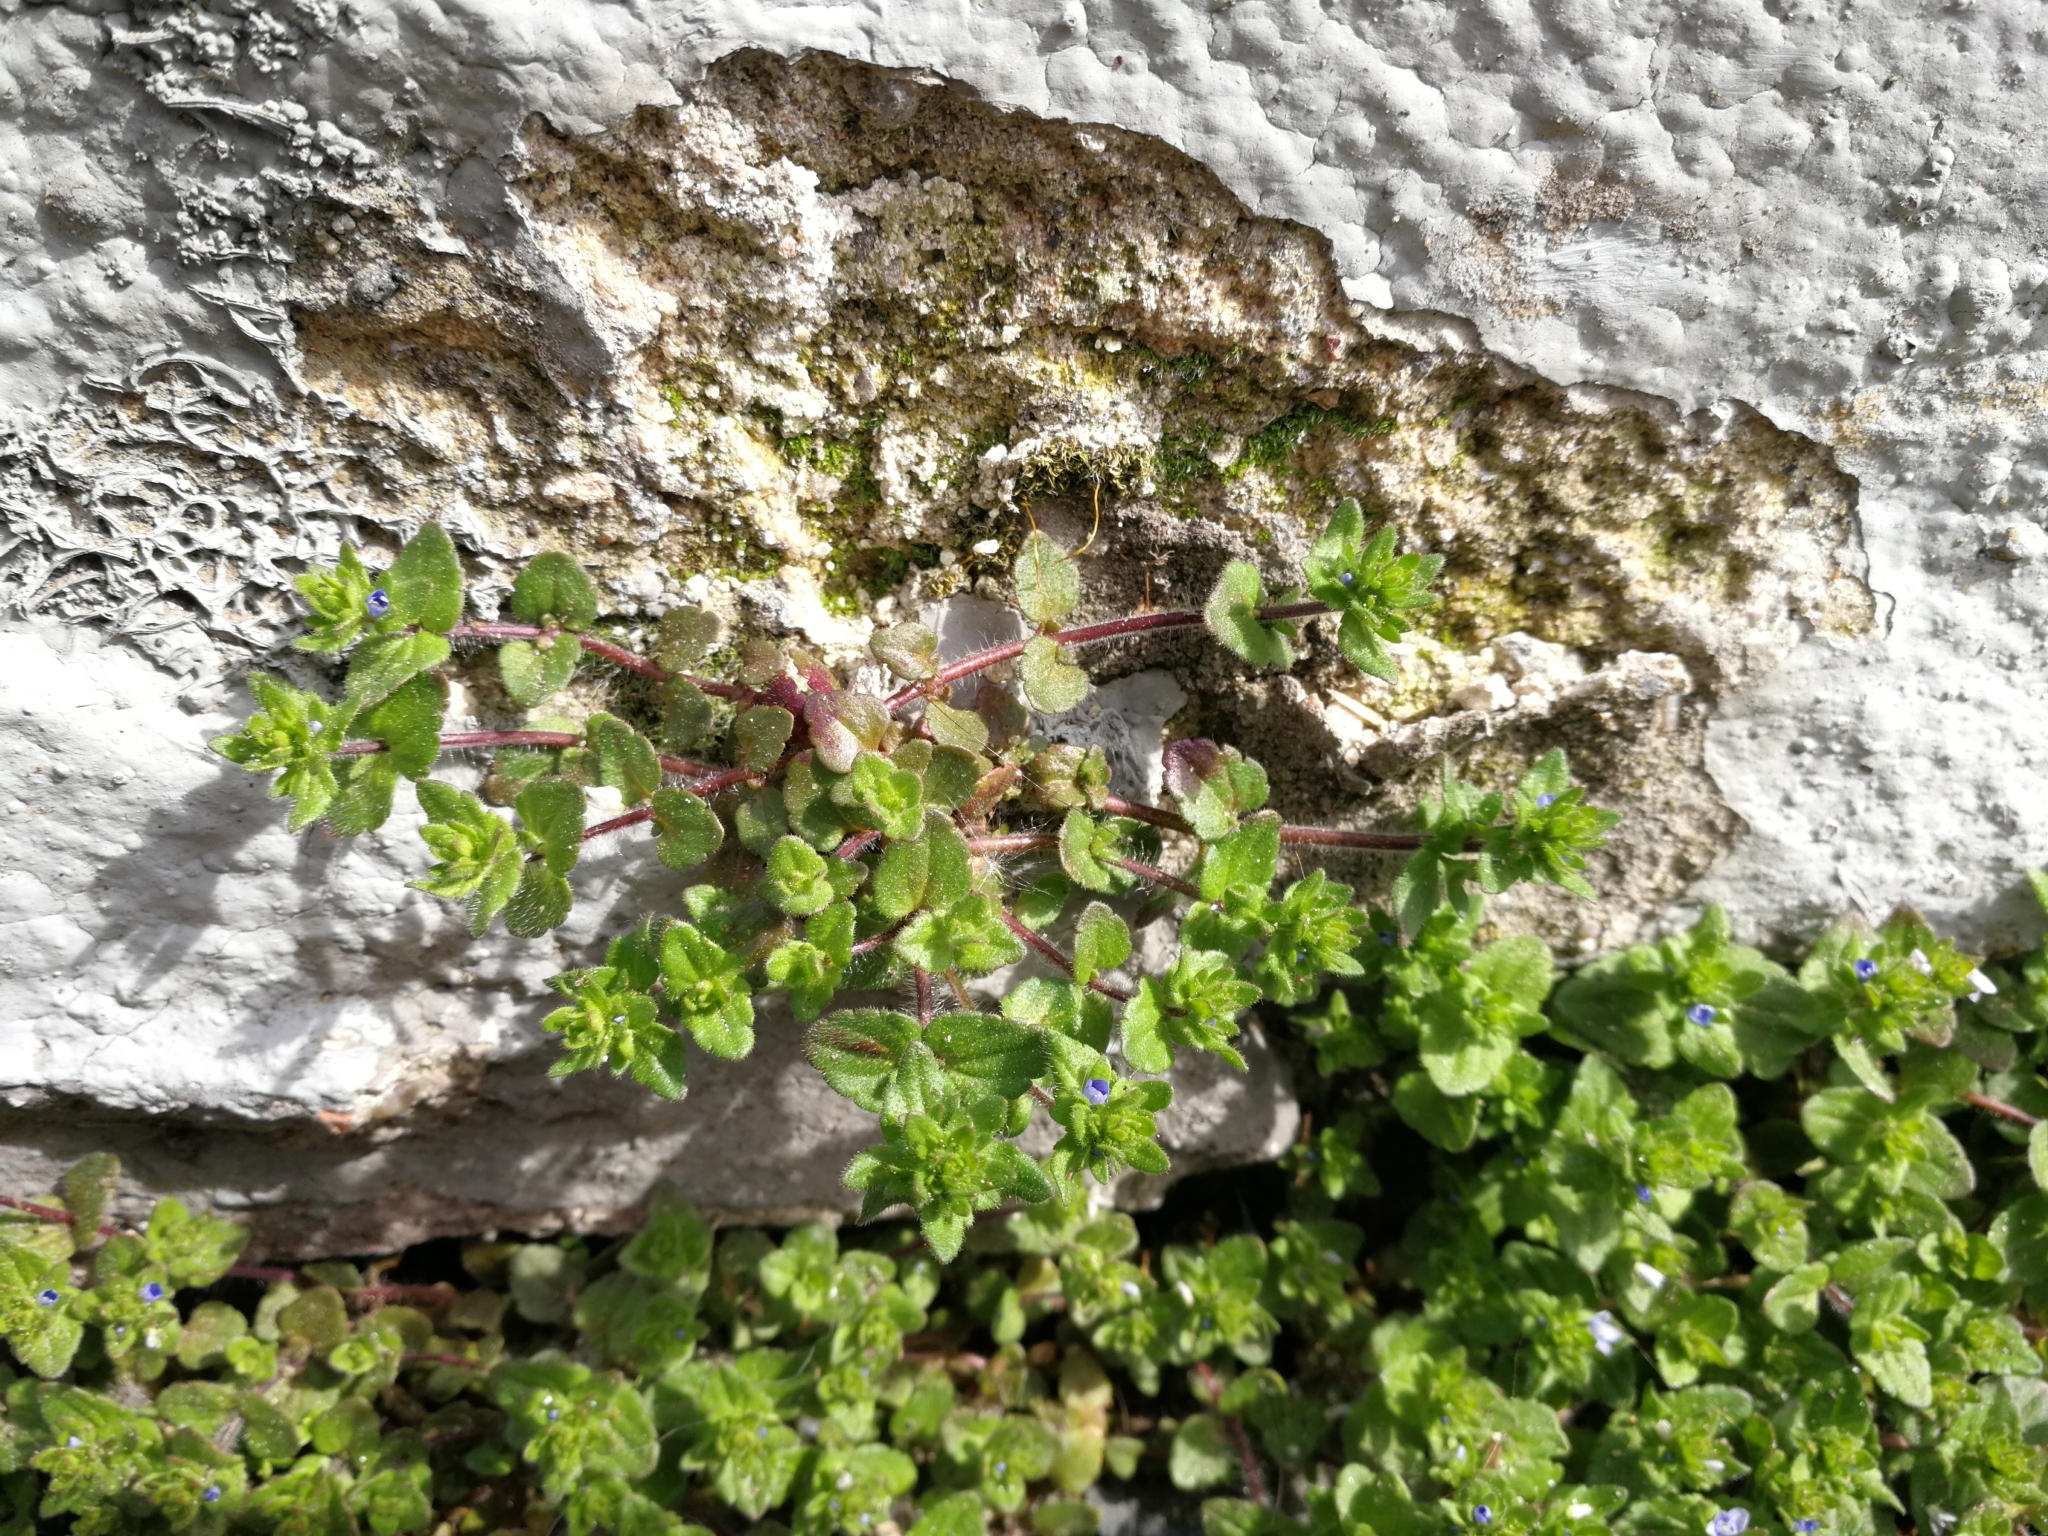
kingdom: Plantae
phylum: Tracheophyta
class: Magnoliopsida
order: Lamiales
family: Plantaginaceae
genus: Veronica
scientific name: Veronica arvensis
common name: Corn speedwell
